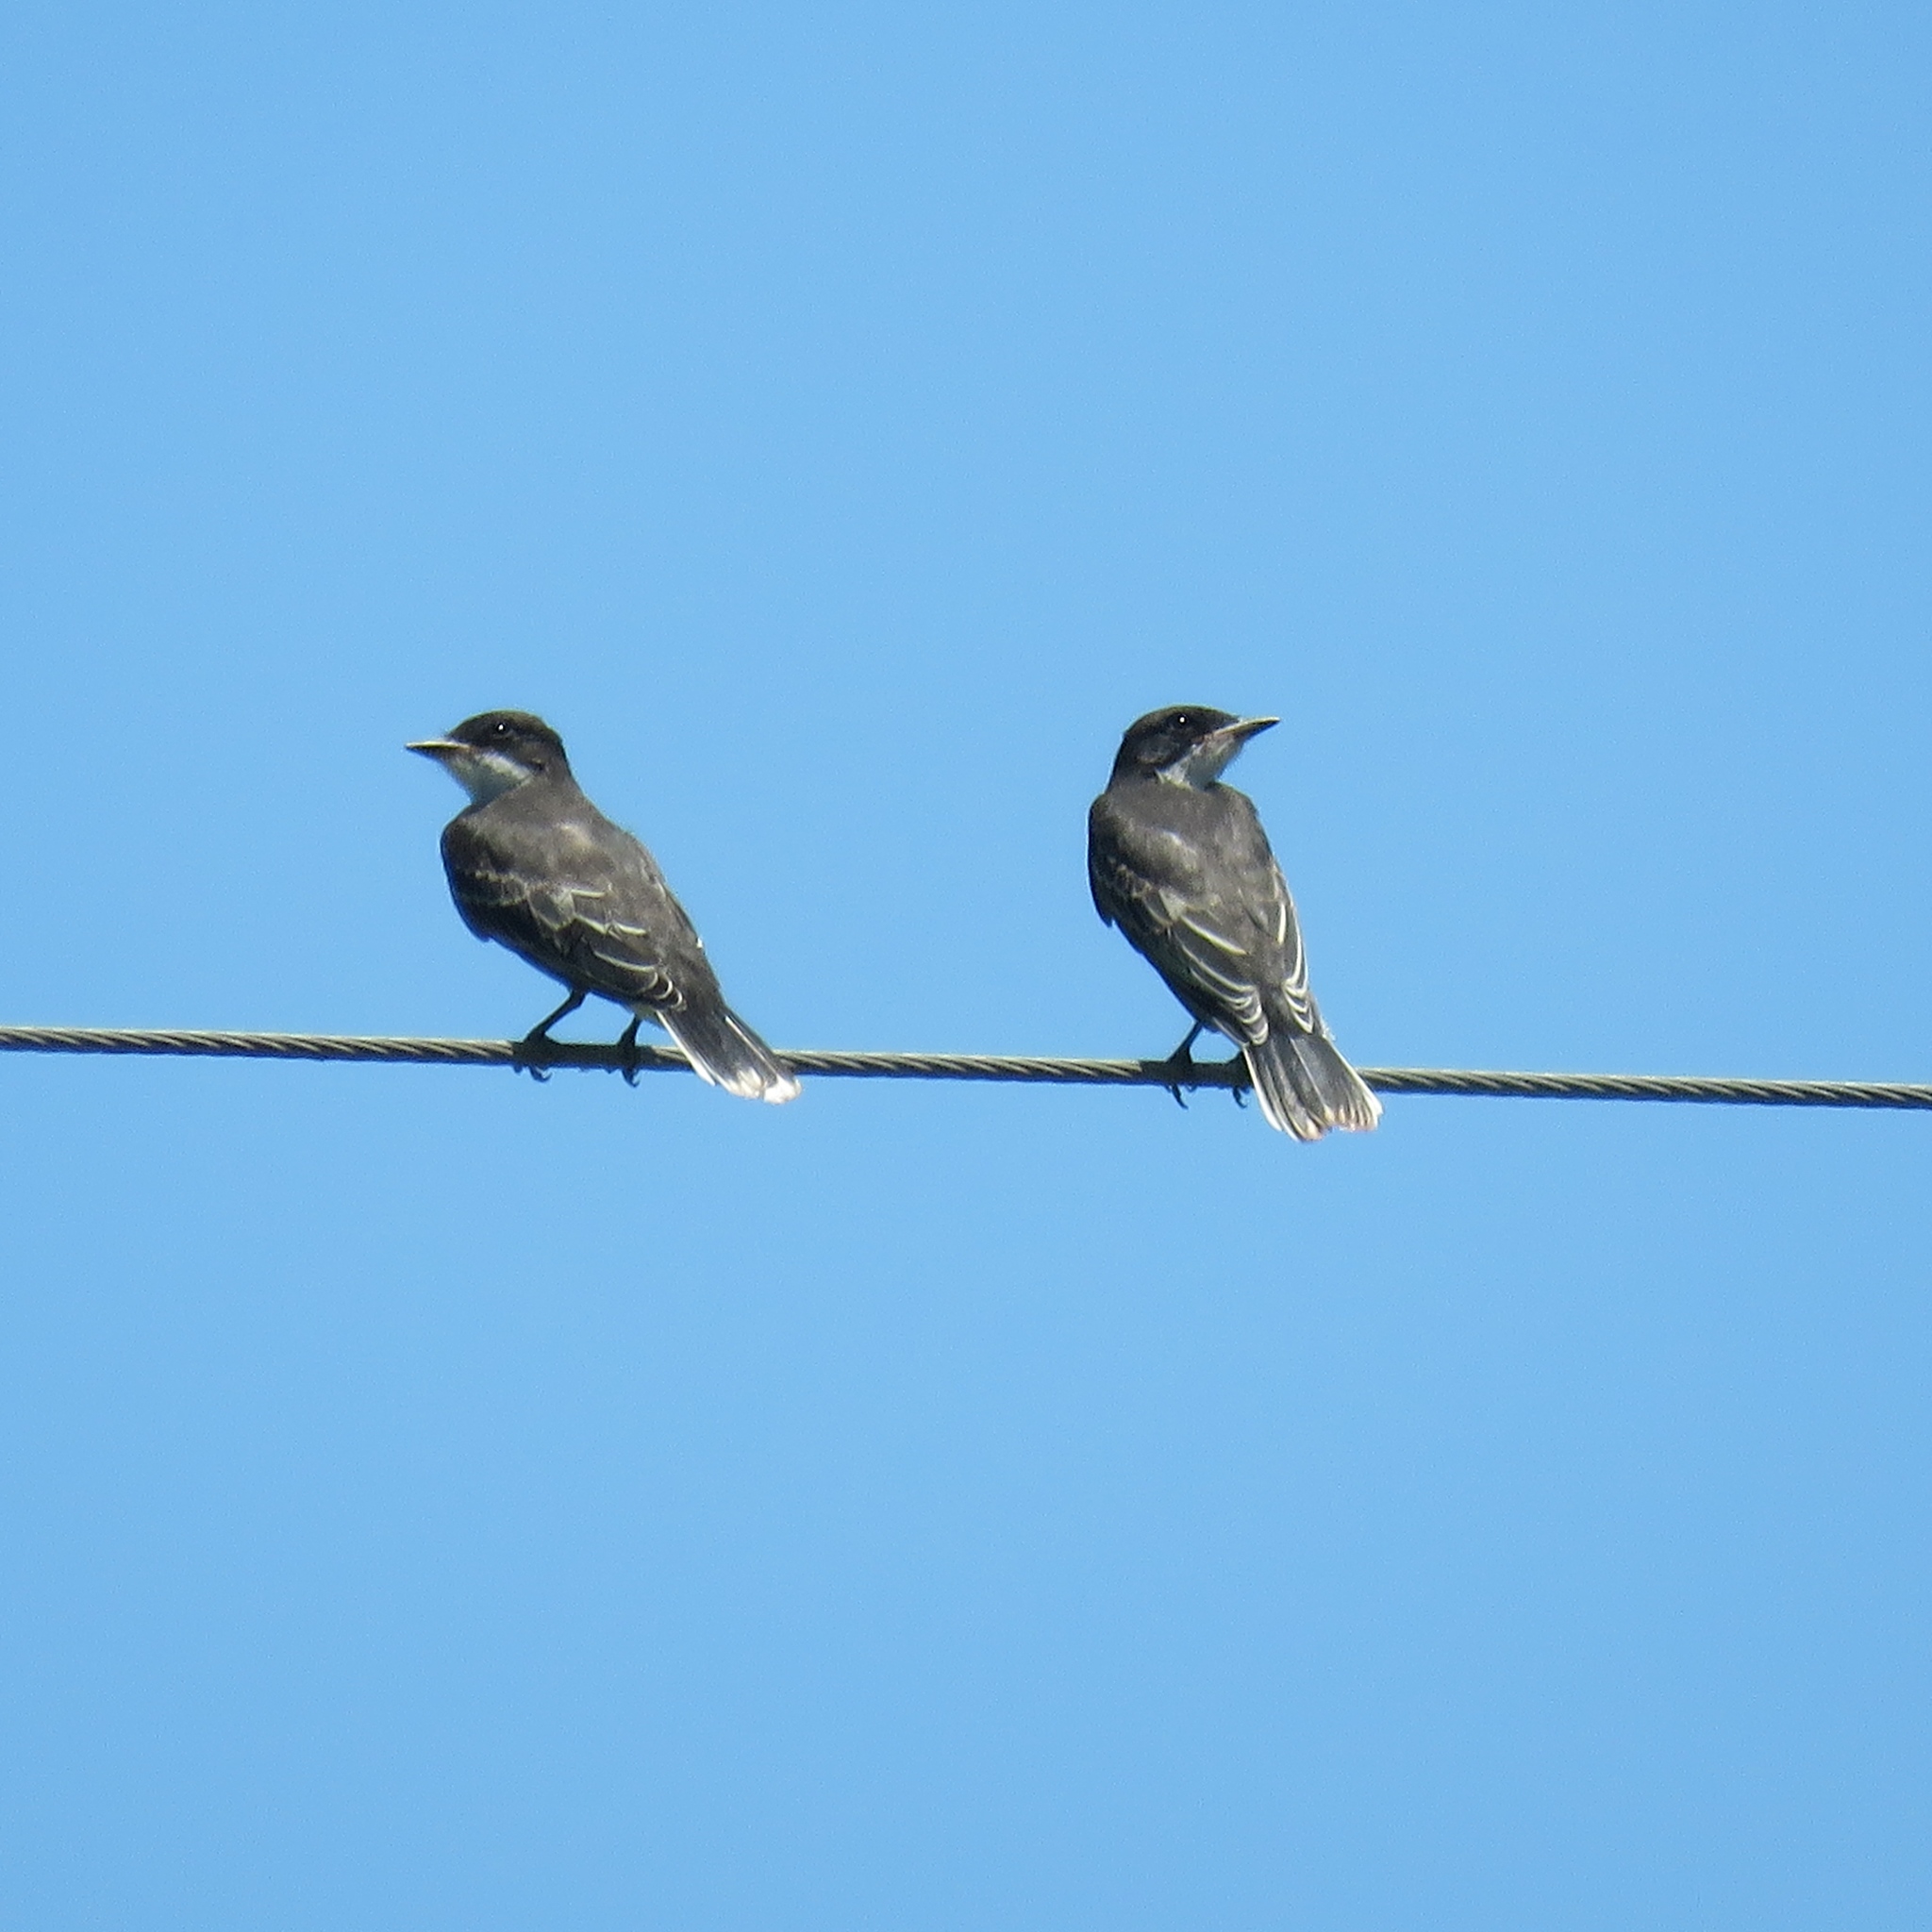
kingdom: Animalia
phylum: Chordata
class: Aves
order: Passeriformes
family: Tyrannidae
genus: Tyrannus
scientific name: Tyrannus tyrannus
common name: Eastern kingbird
